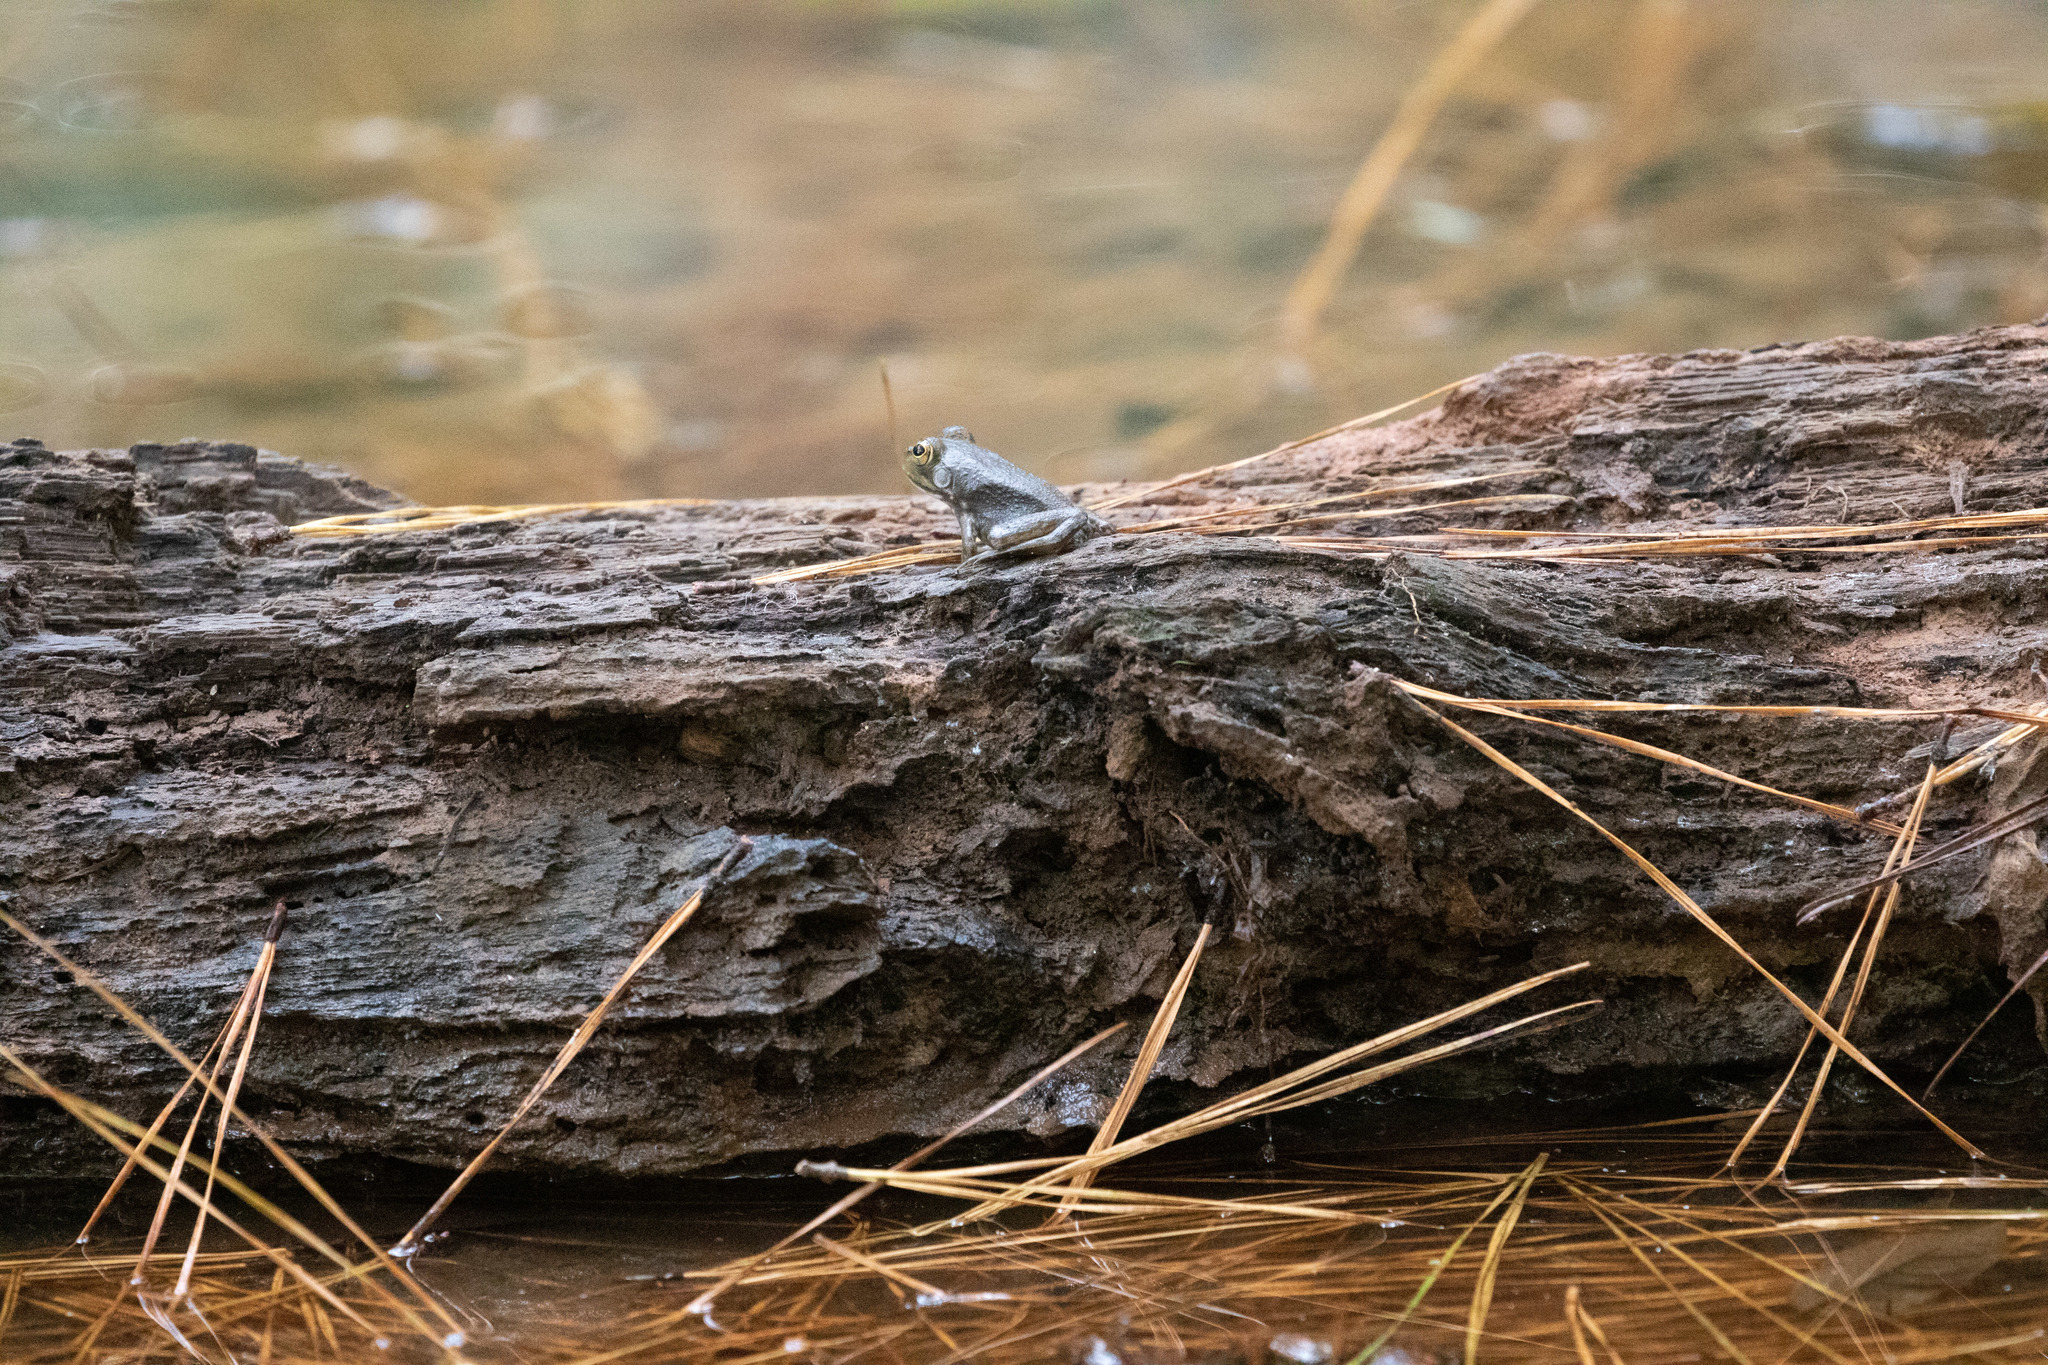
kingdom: Animalia
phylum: Chordata
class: Amphibia
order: Anura
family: Ranidae
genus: Lithobates
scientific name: Lithobates catesbeianus
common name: American bullfrog
